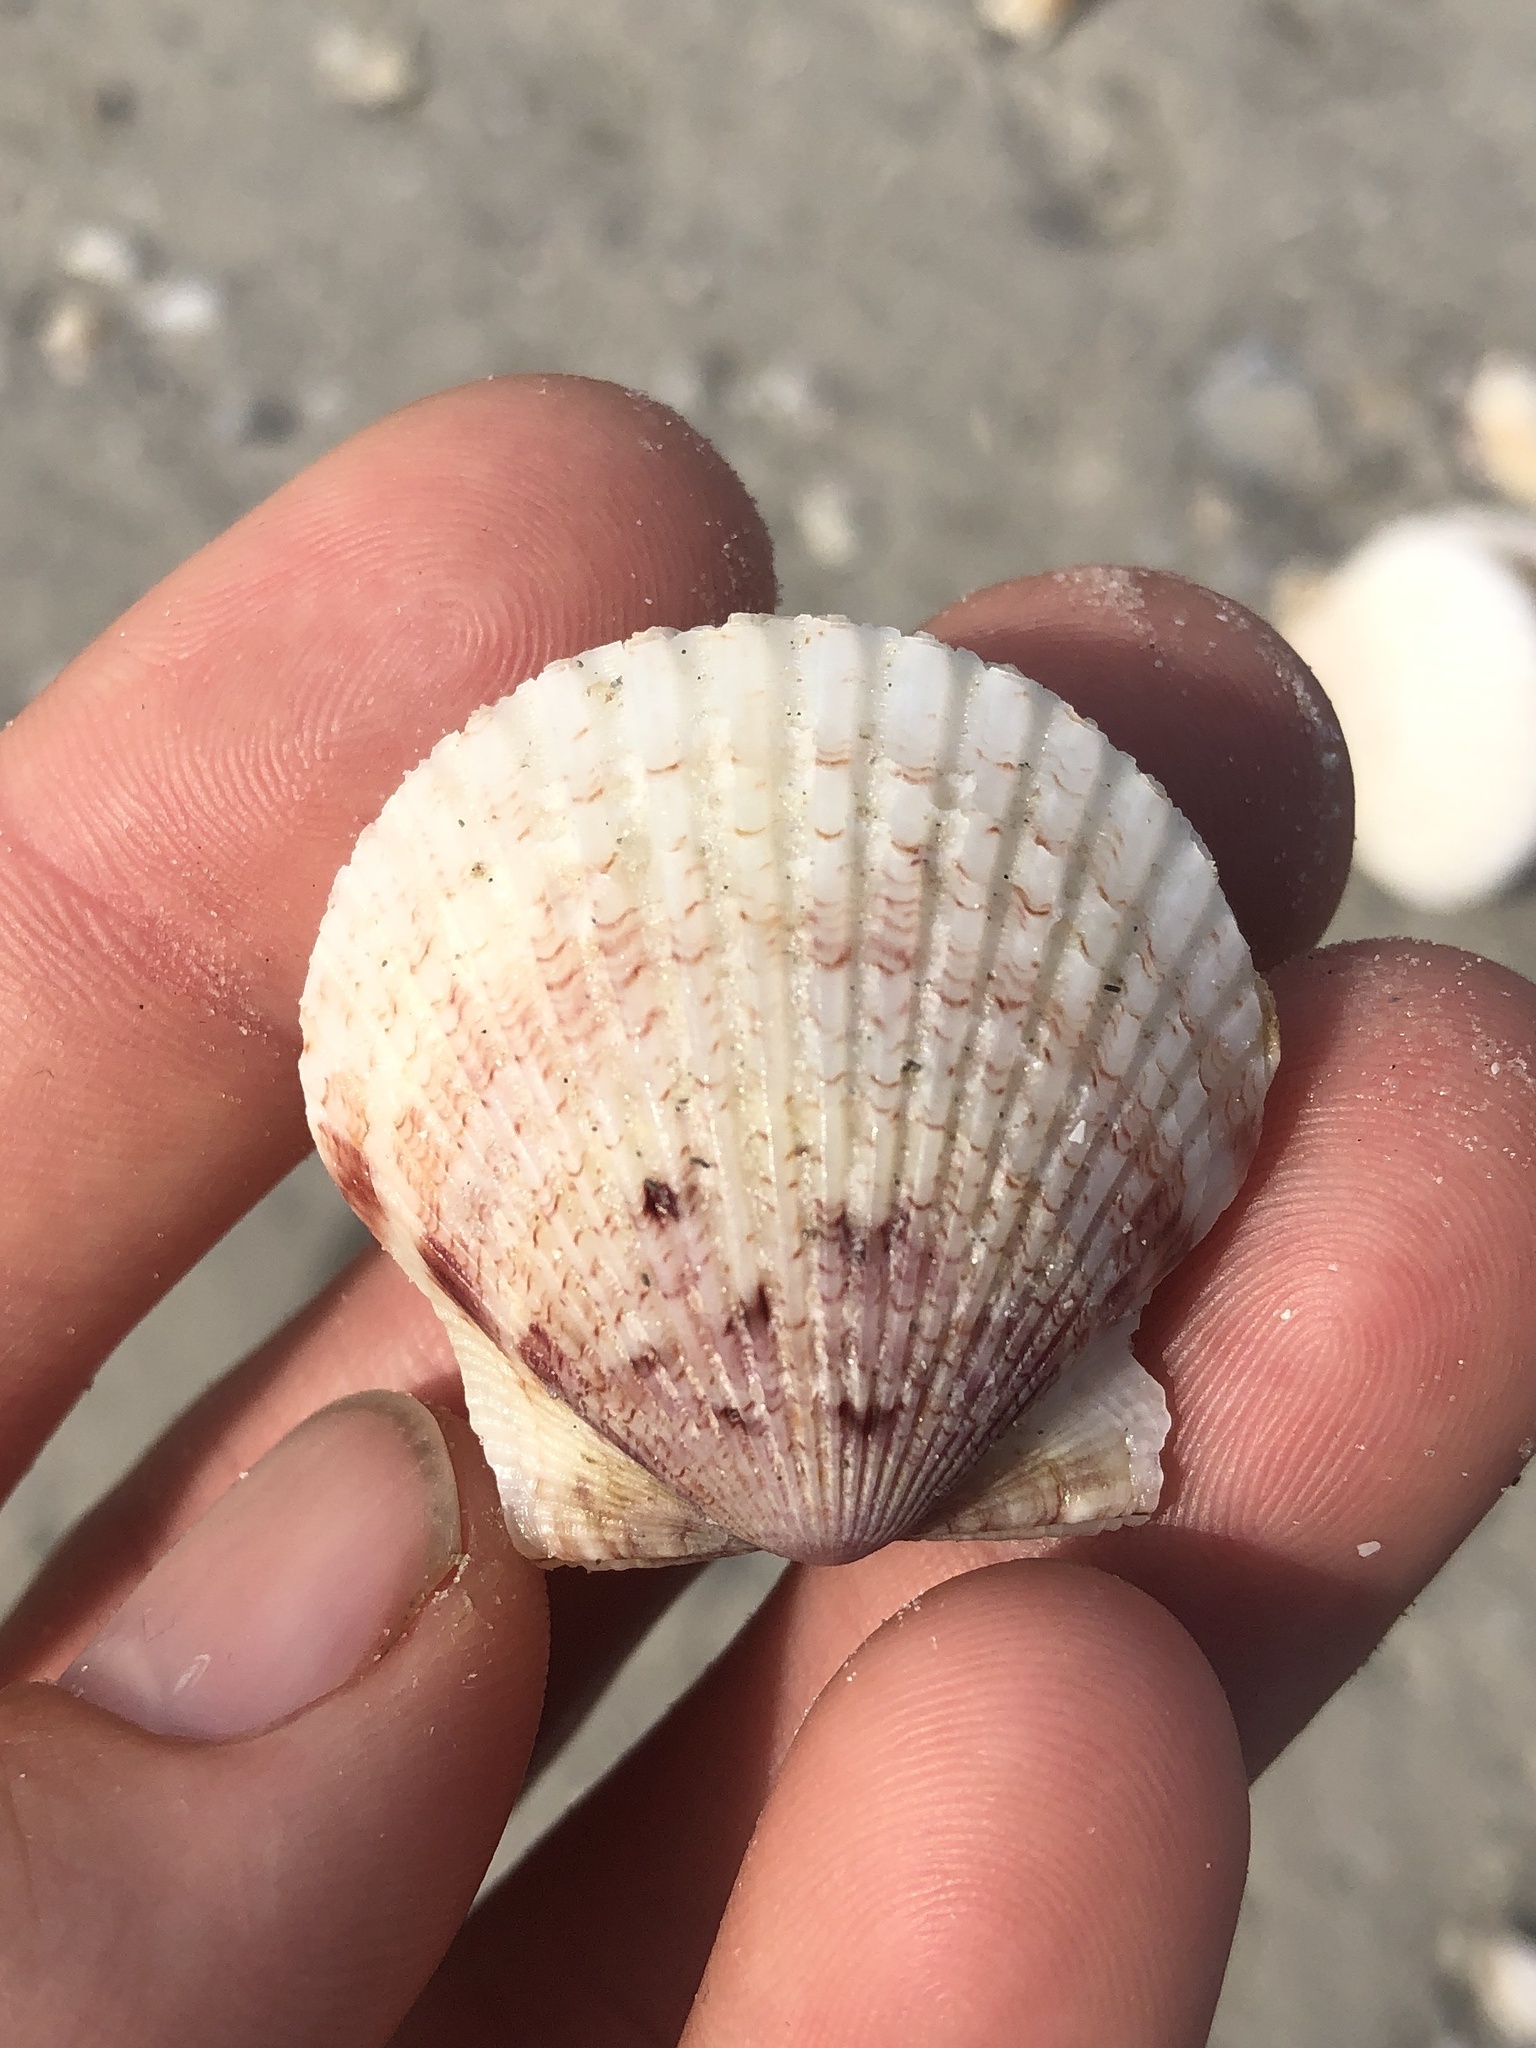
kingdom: Animalia
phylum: Mollusca
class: Bivalvia
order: Pectinida
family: Pectinidae
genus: Argopecten
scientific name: Argopecten gibbus
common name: Atlantic calico scallop
